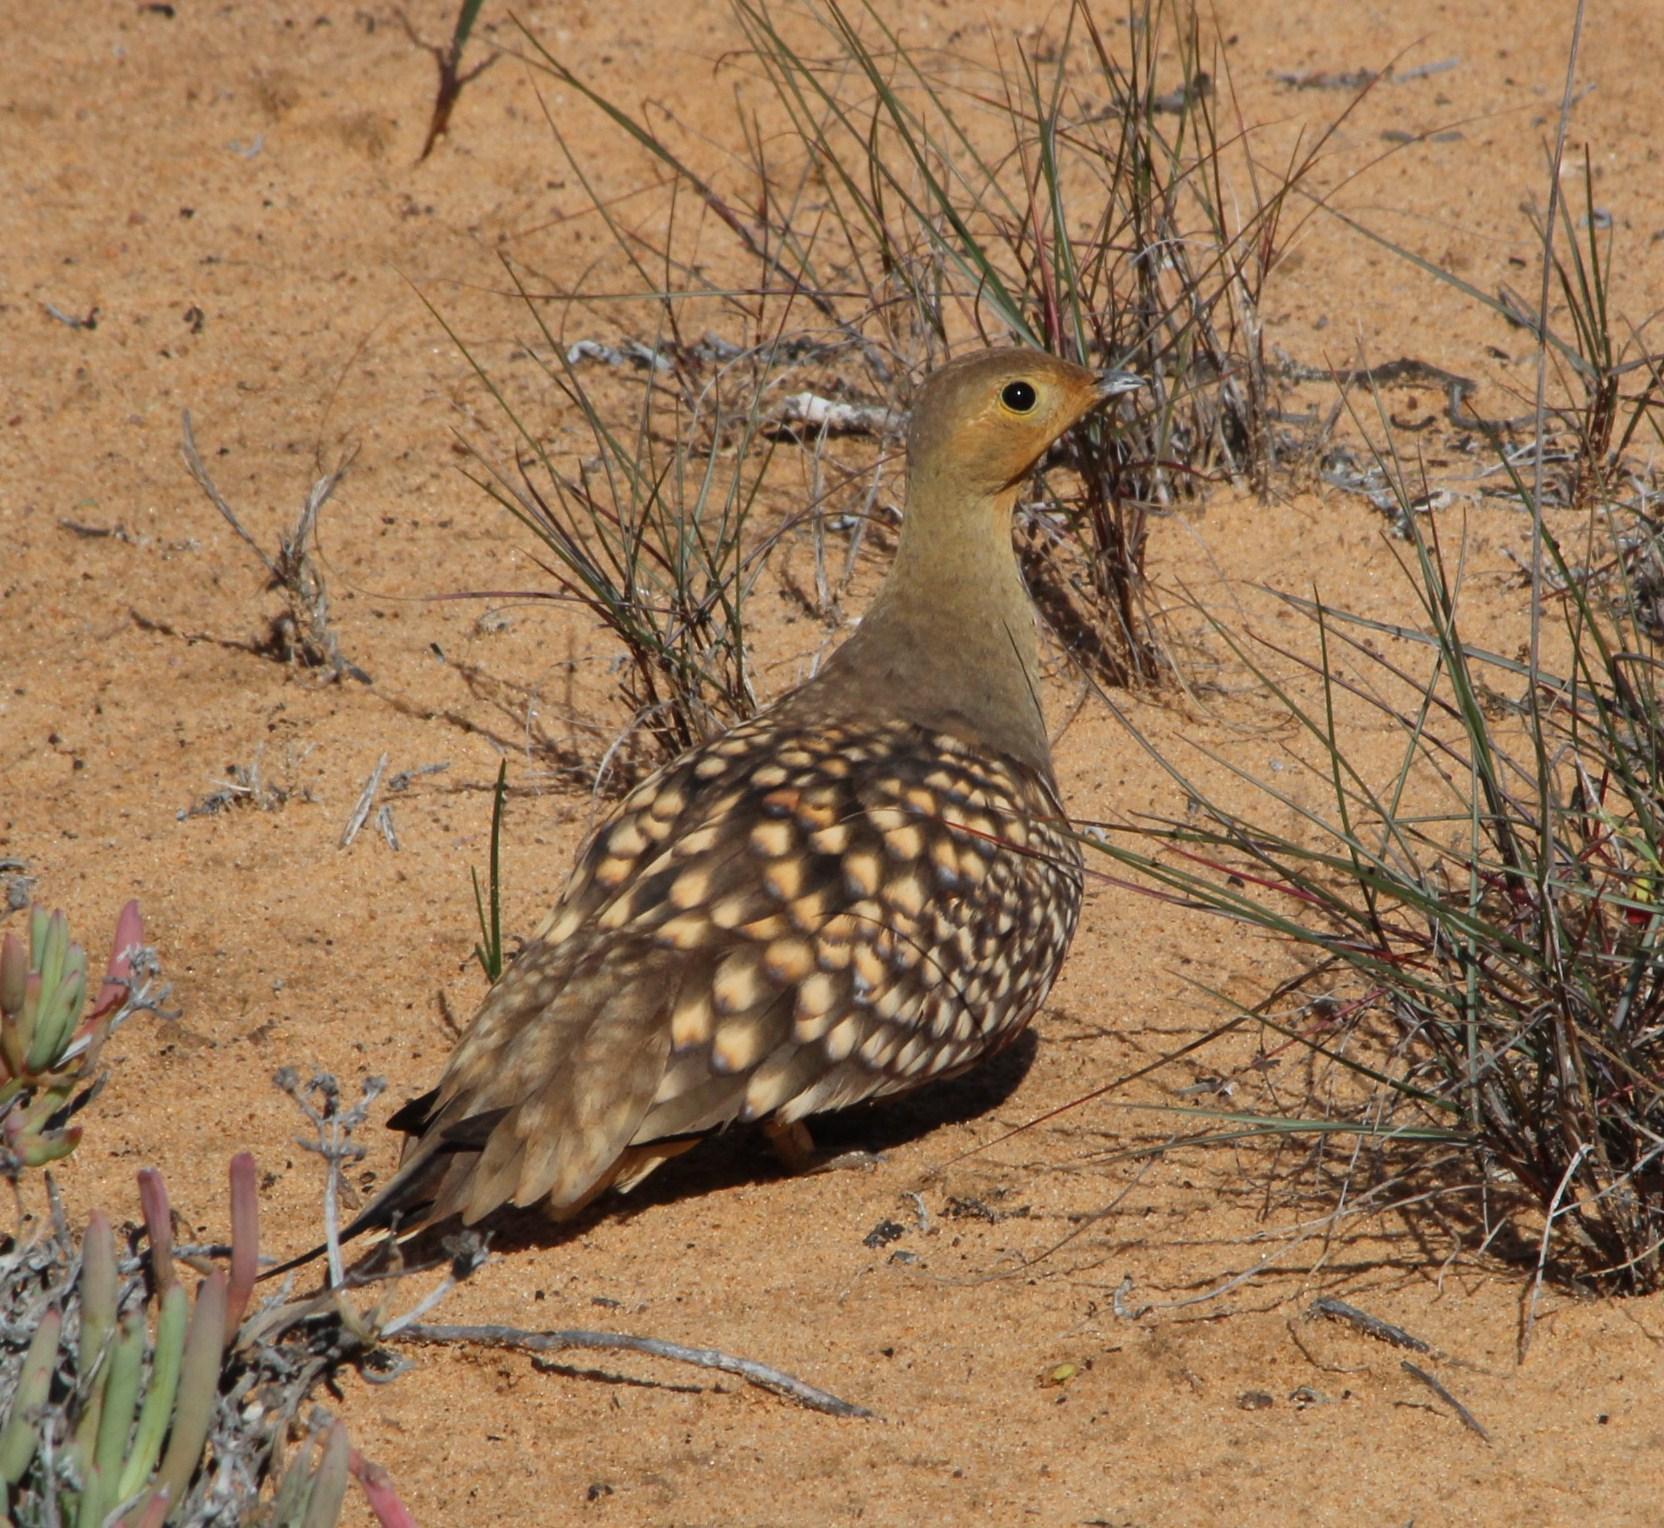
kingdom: Animalia
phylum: Chordata
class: Aves
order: Pteroclidiformes
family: Pteroclididae
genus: Pterocles
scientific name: Pterocles namaqua
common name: Namaqua sandgrouse
